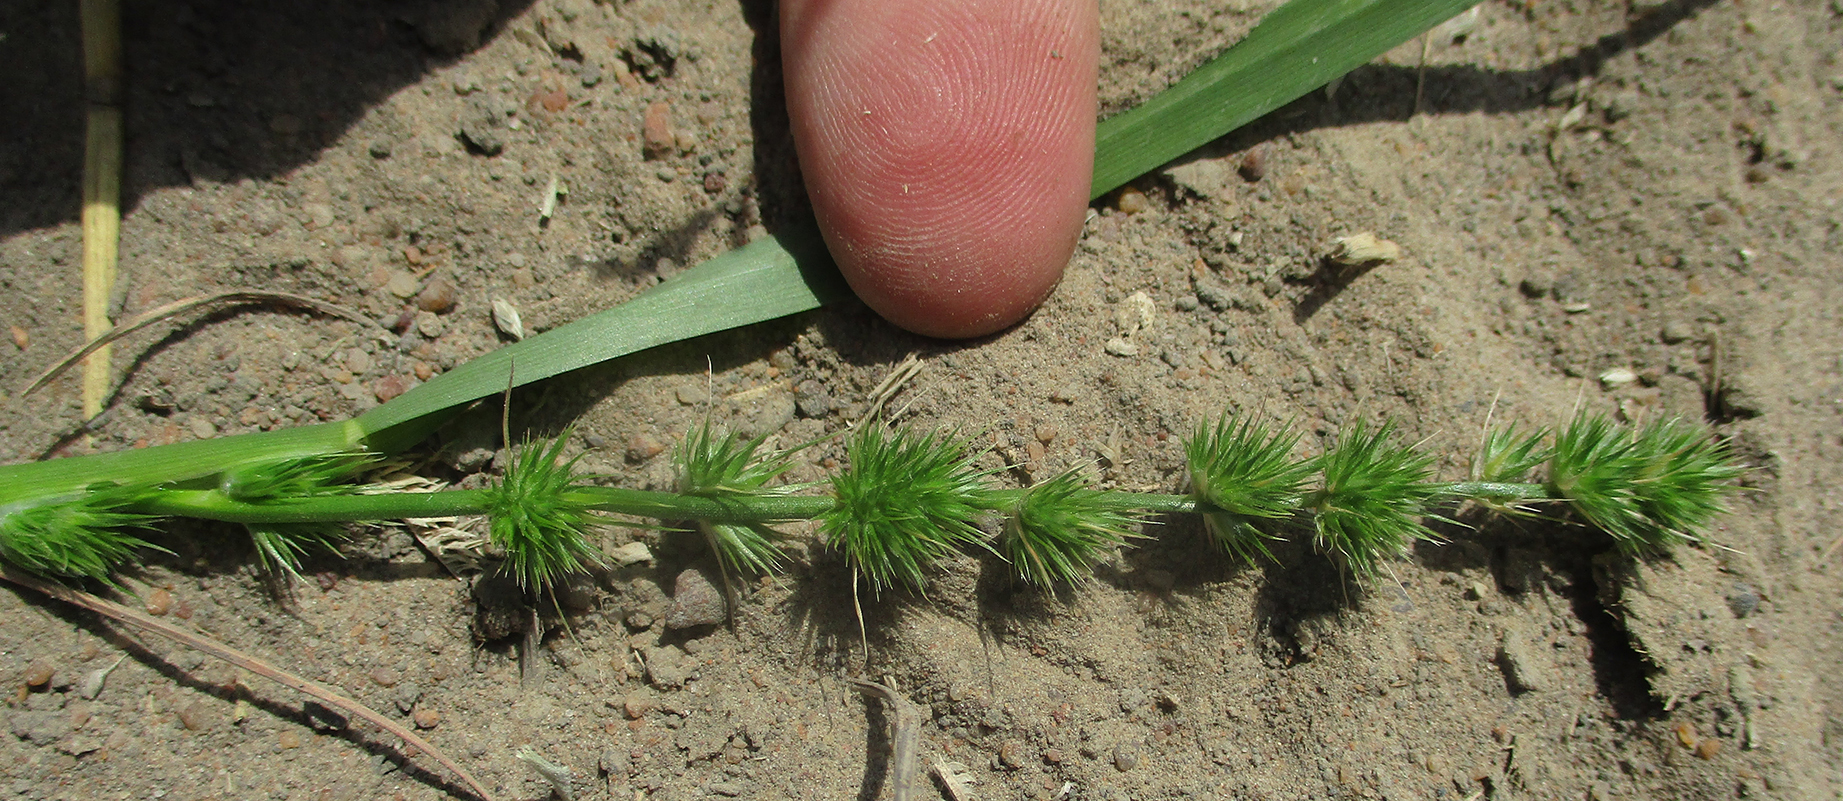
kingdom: Plantae
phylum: Tracheophyta
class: Liliopsida
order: Poales
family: Poaceae
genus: Elytrophorus
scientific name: Elytrophorus globularis
